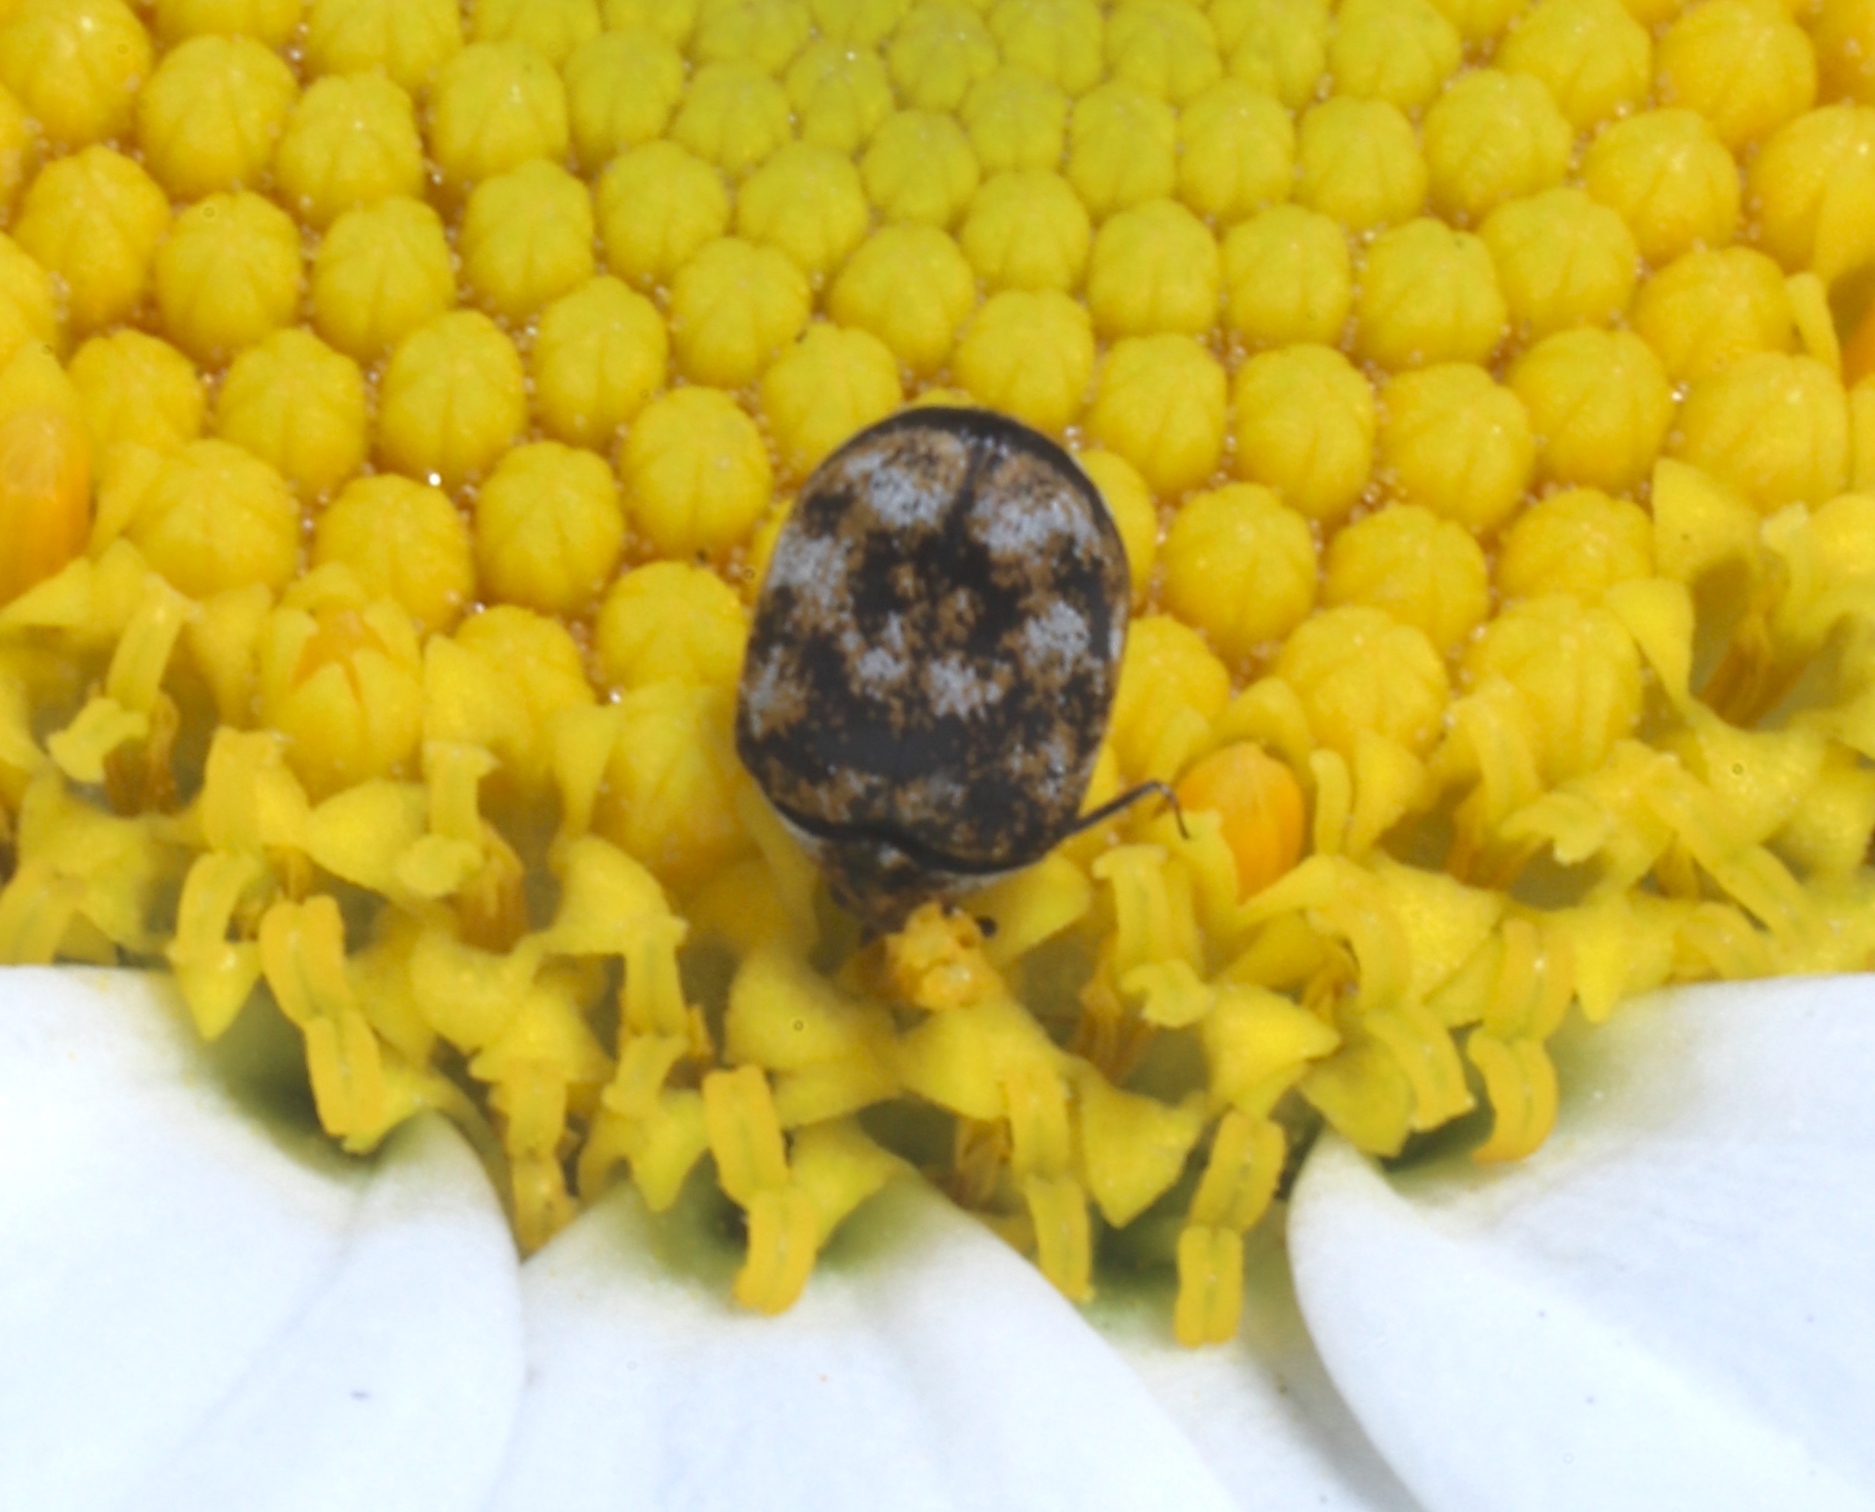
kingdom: Animalia
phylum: Arthropoda
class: Insecta
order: Coleoptera
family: Dermestidae
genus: Anthrenus
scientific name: Anthrenus verbasci
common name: Varied carpet beetle
